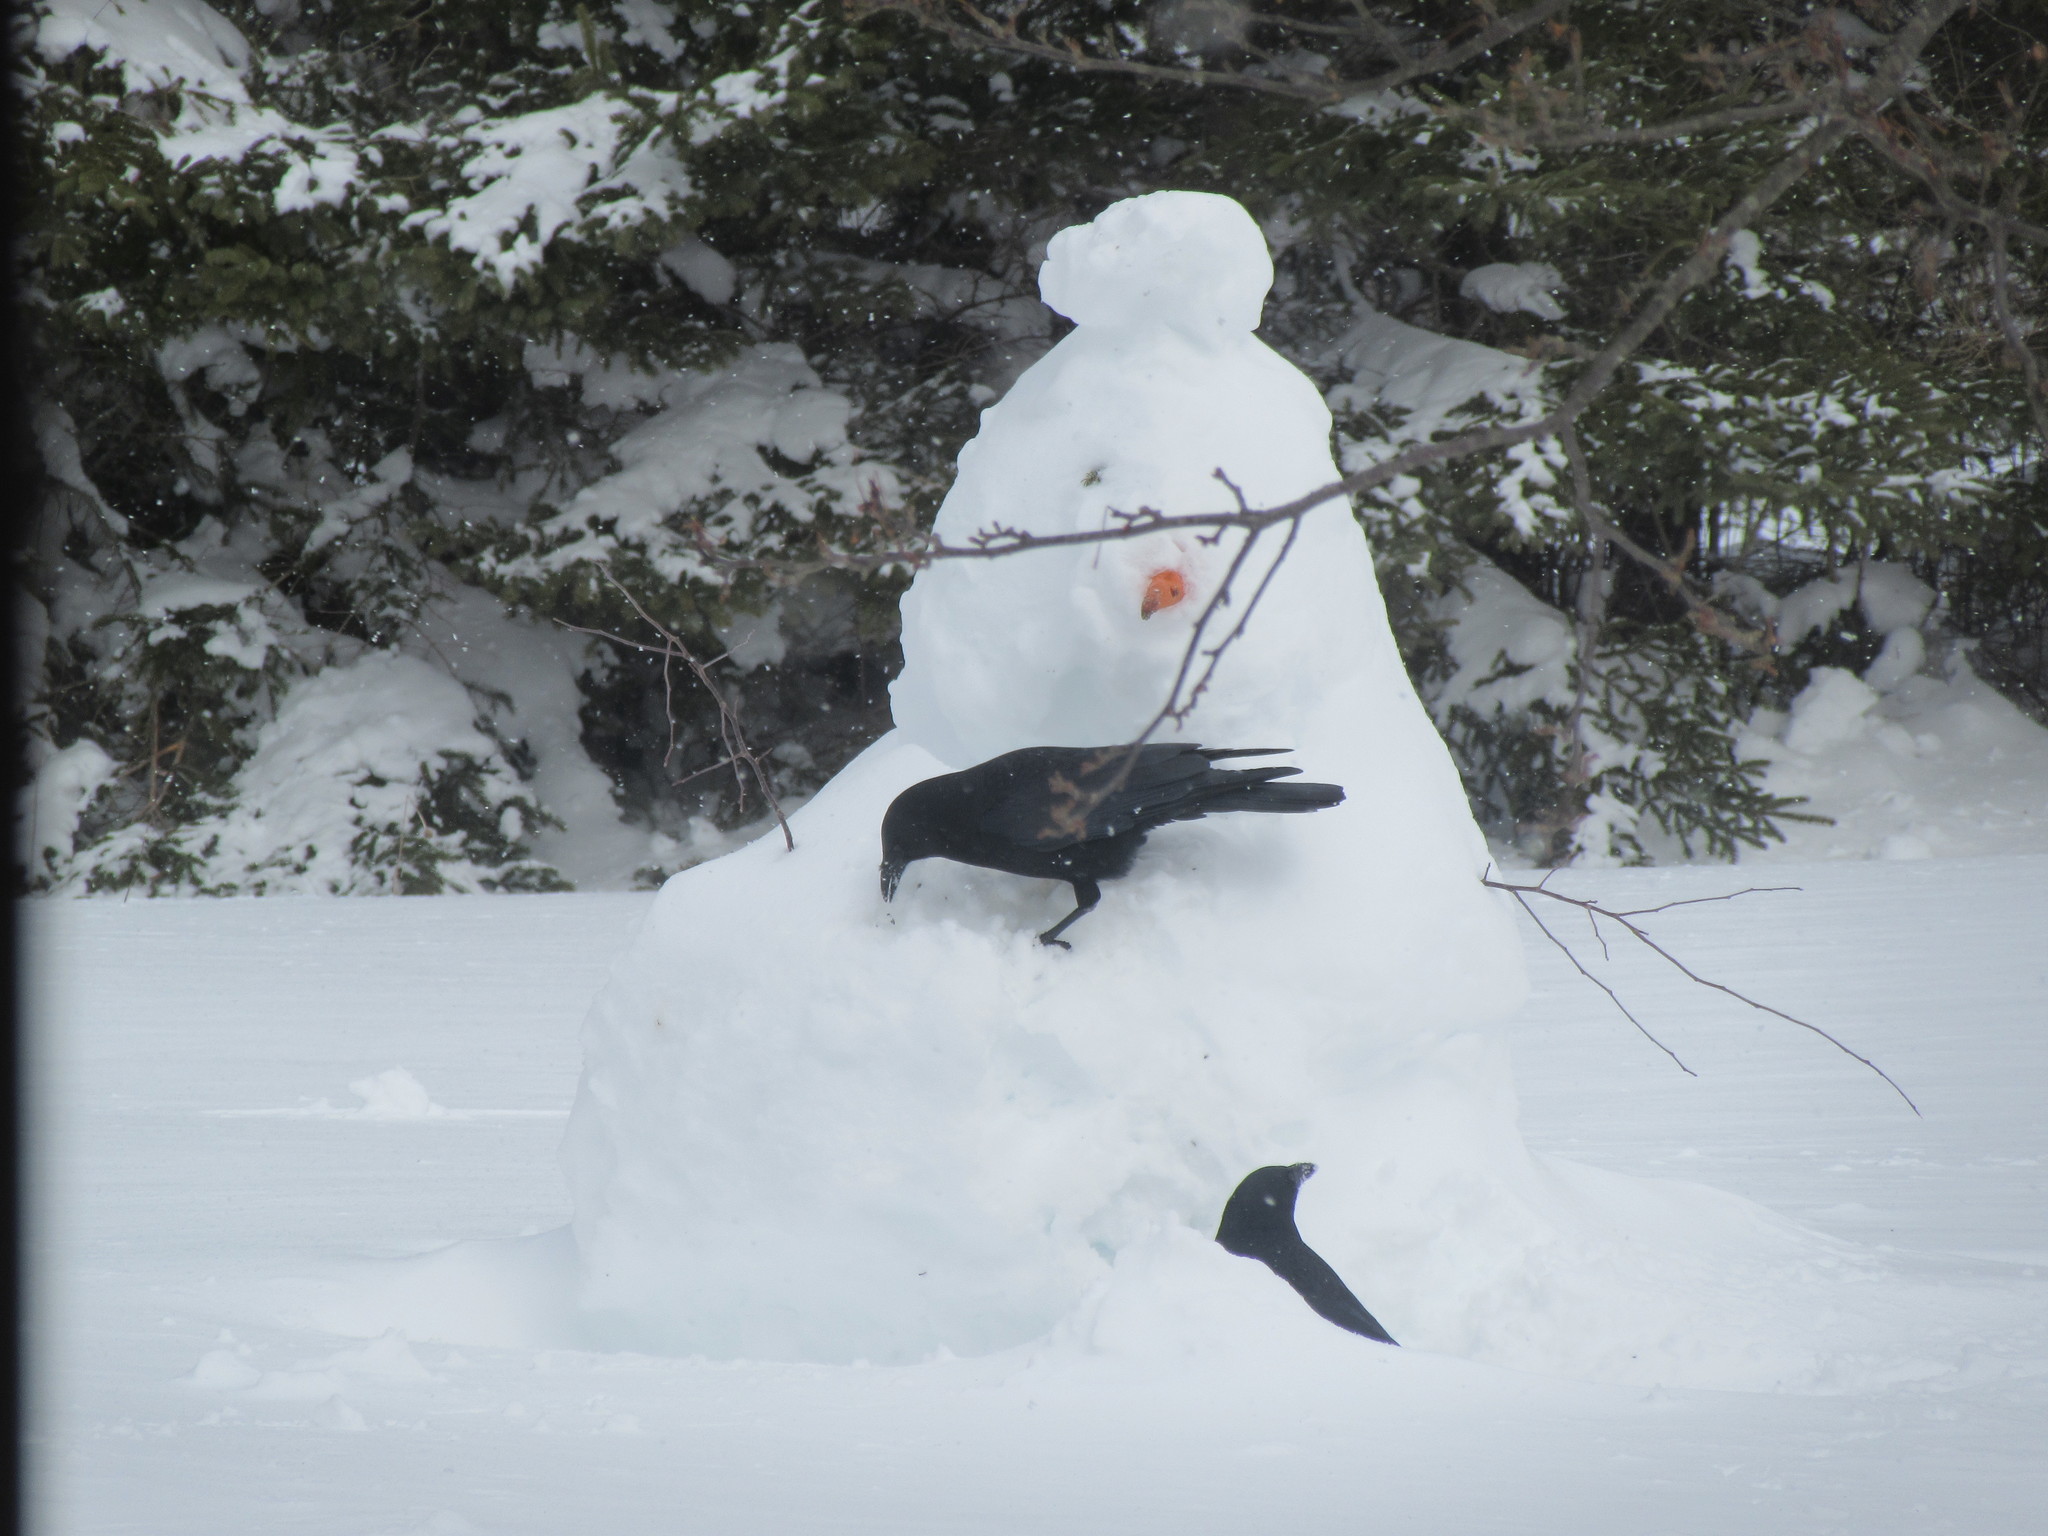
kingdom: Animalia
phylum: Chordata
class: Aves
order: Passeriformes
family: Corvidae
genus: Corvus
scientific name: Corvus brachyrhynchos
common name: American crow
